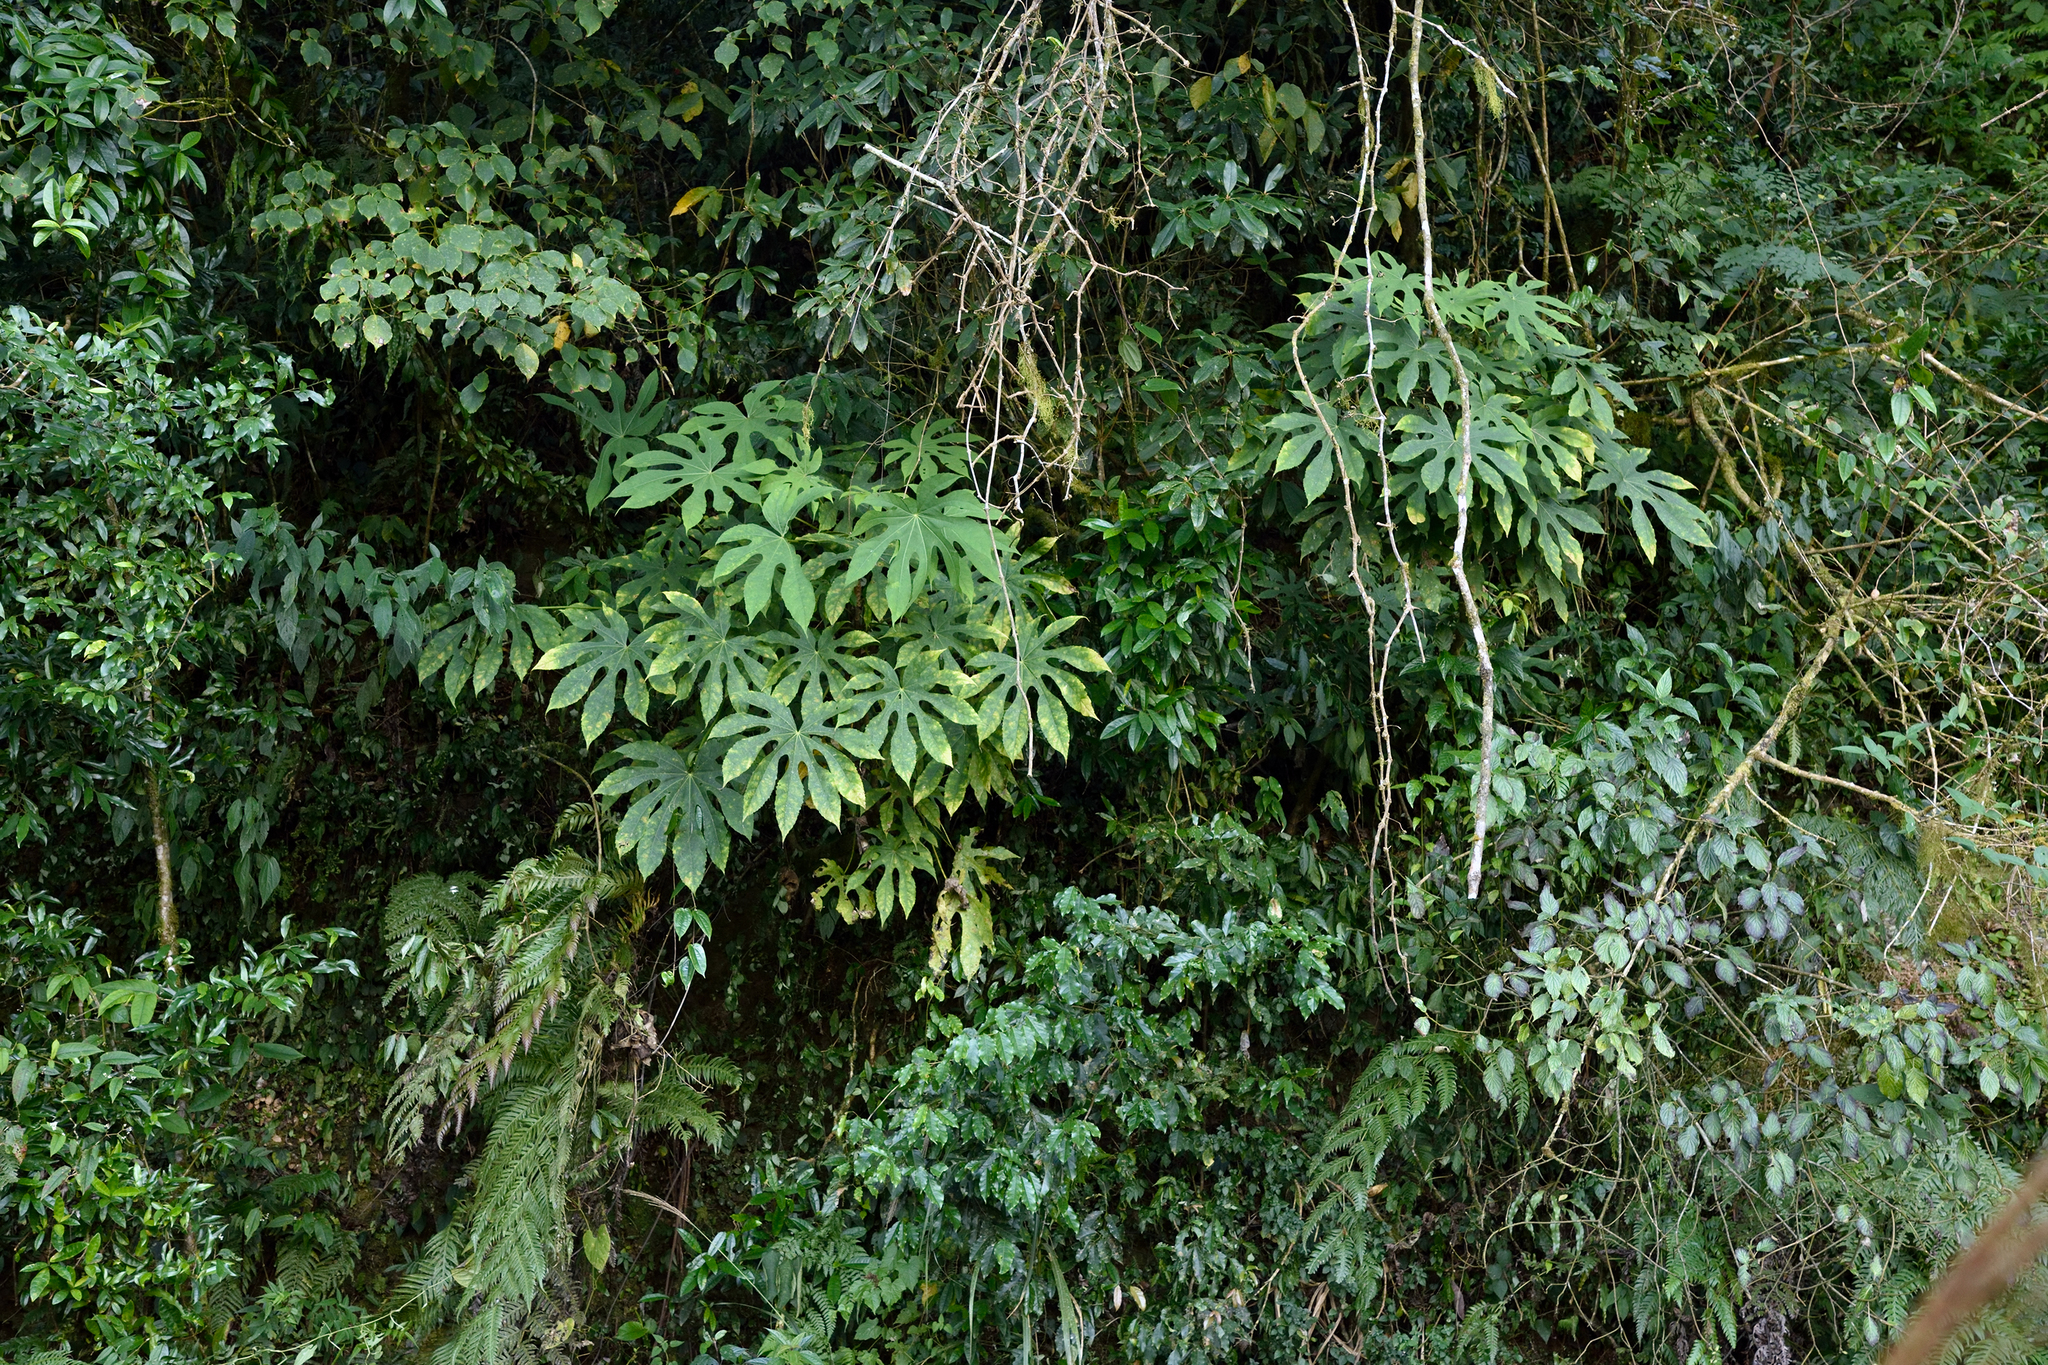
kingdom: Plantae
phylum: Tracheophyta
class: Magnoliopsida
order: Apiales
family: Araliaceae
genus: Fatsia
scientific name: Fatsia polycarpa
